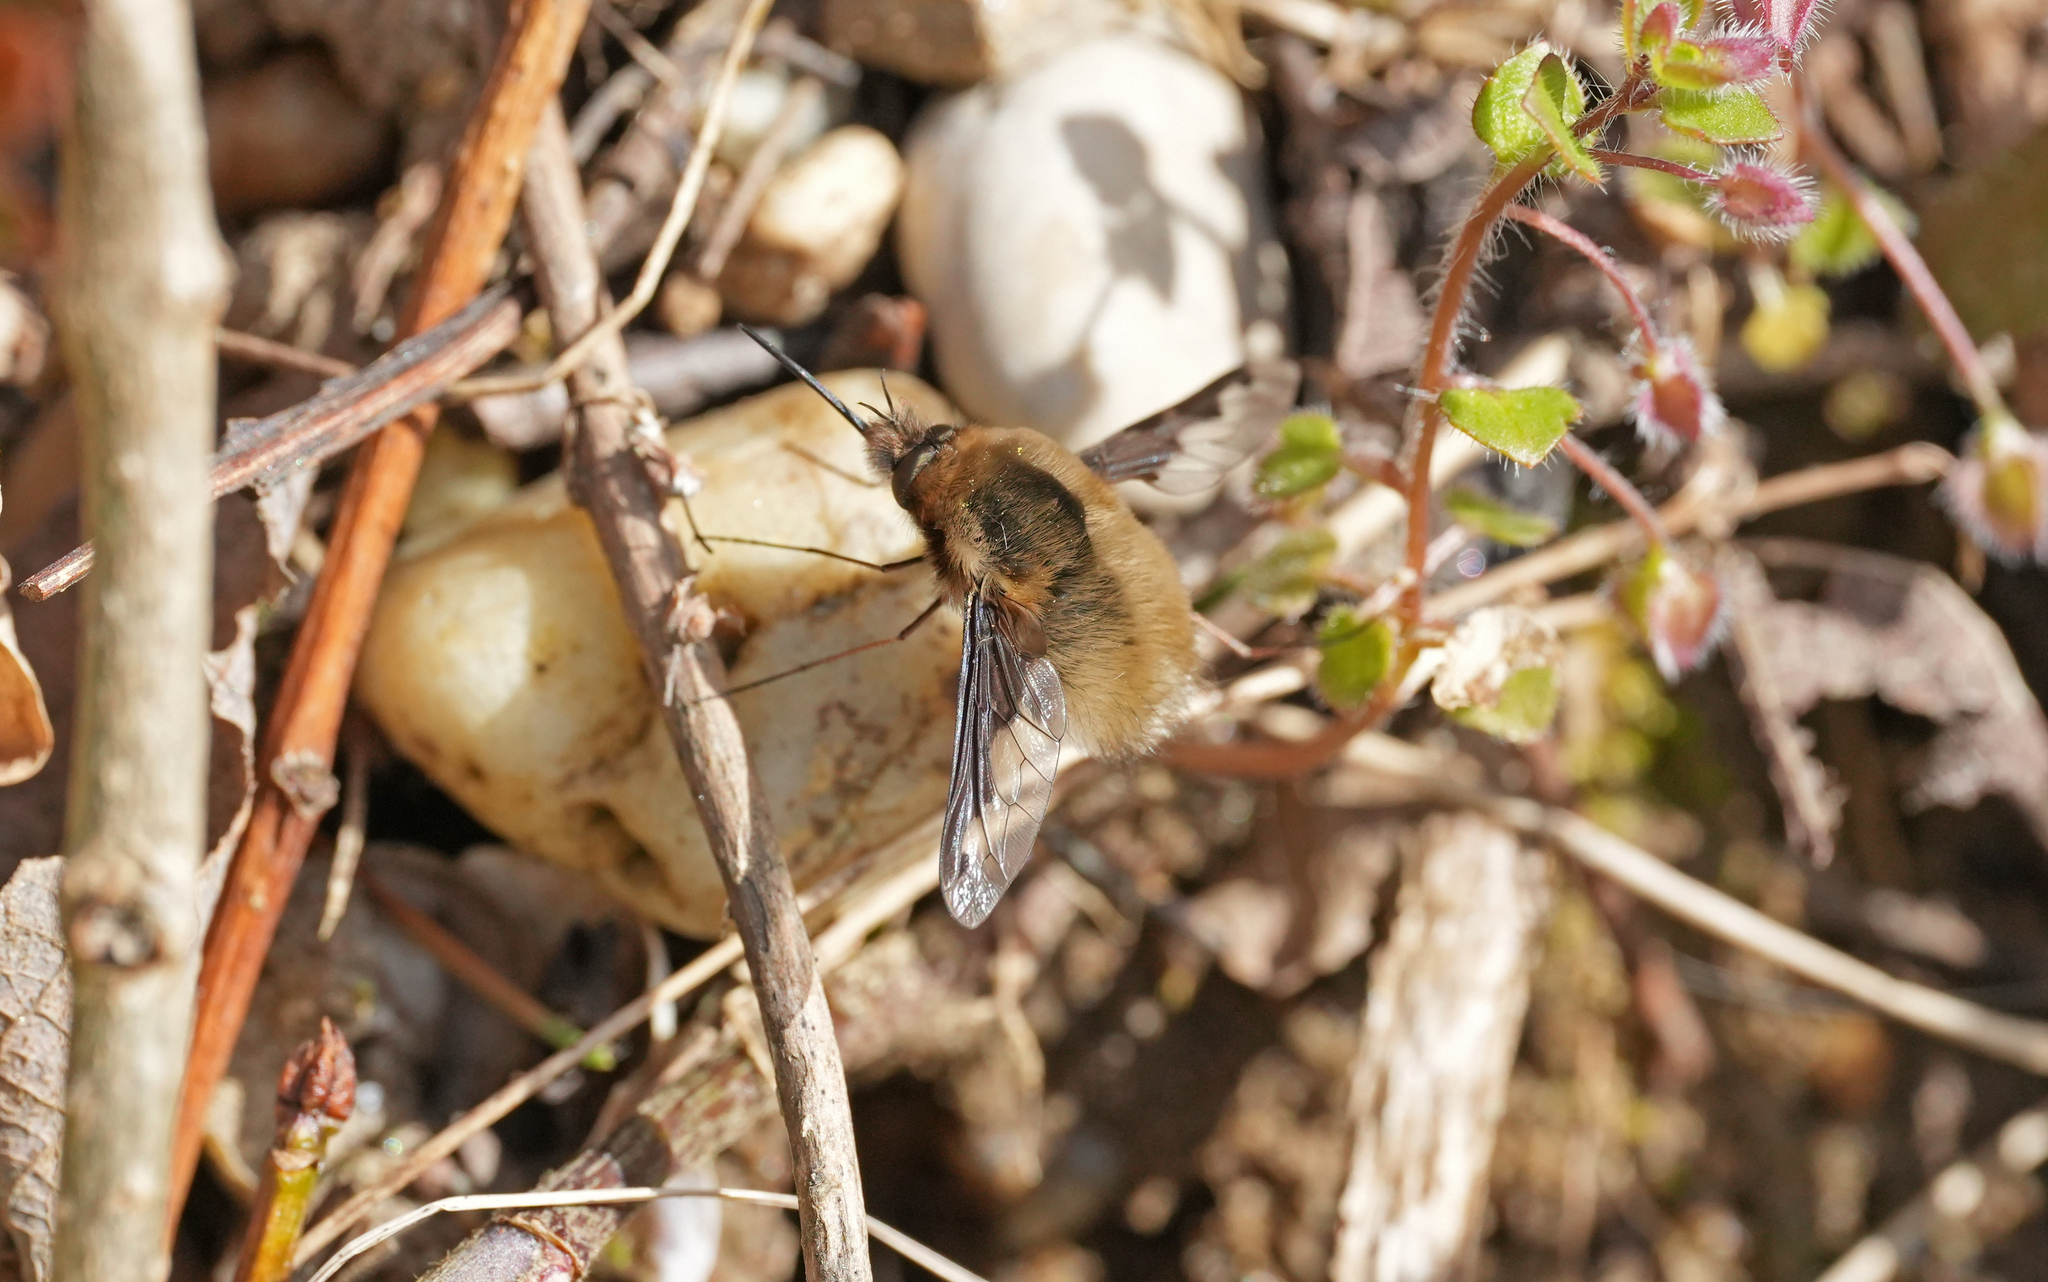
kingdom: Animalia
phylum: Arthropoda
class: Insecta
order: Diptera
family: Bombyliidae
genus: Bombylius
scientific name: Bombylius major
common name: Bee fly
